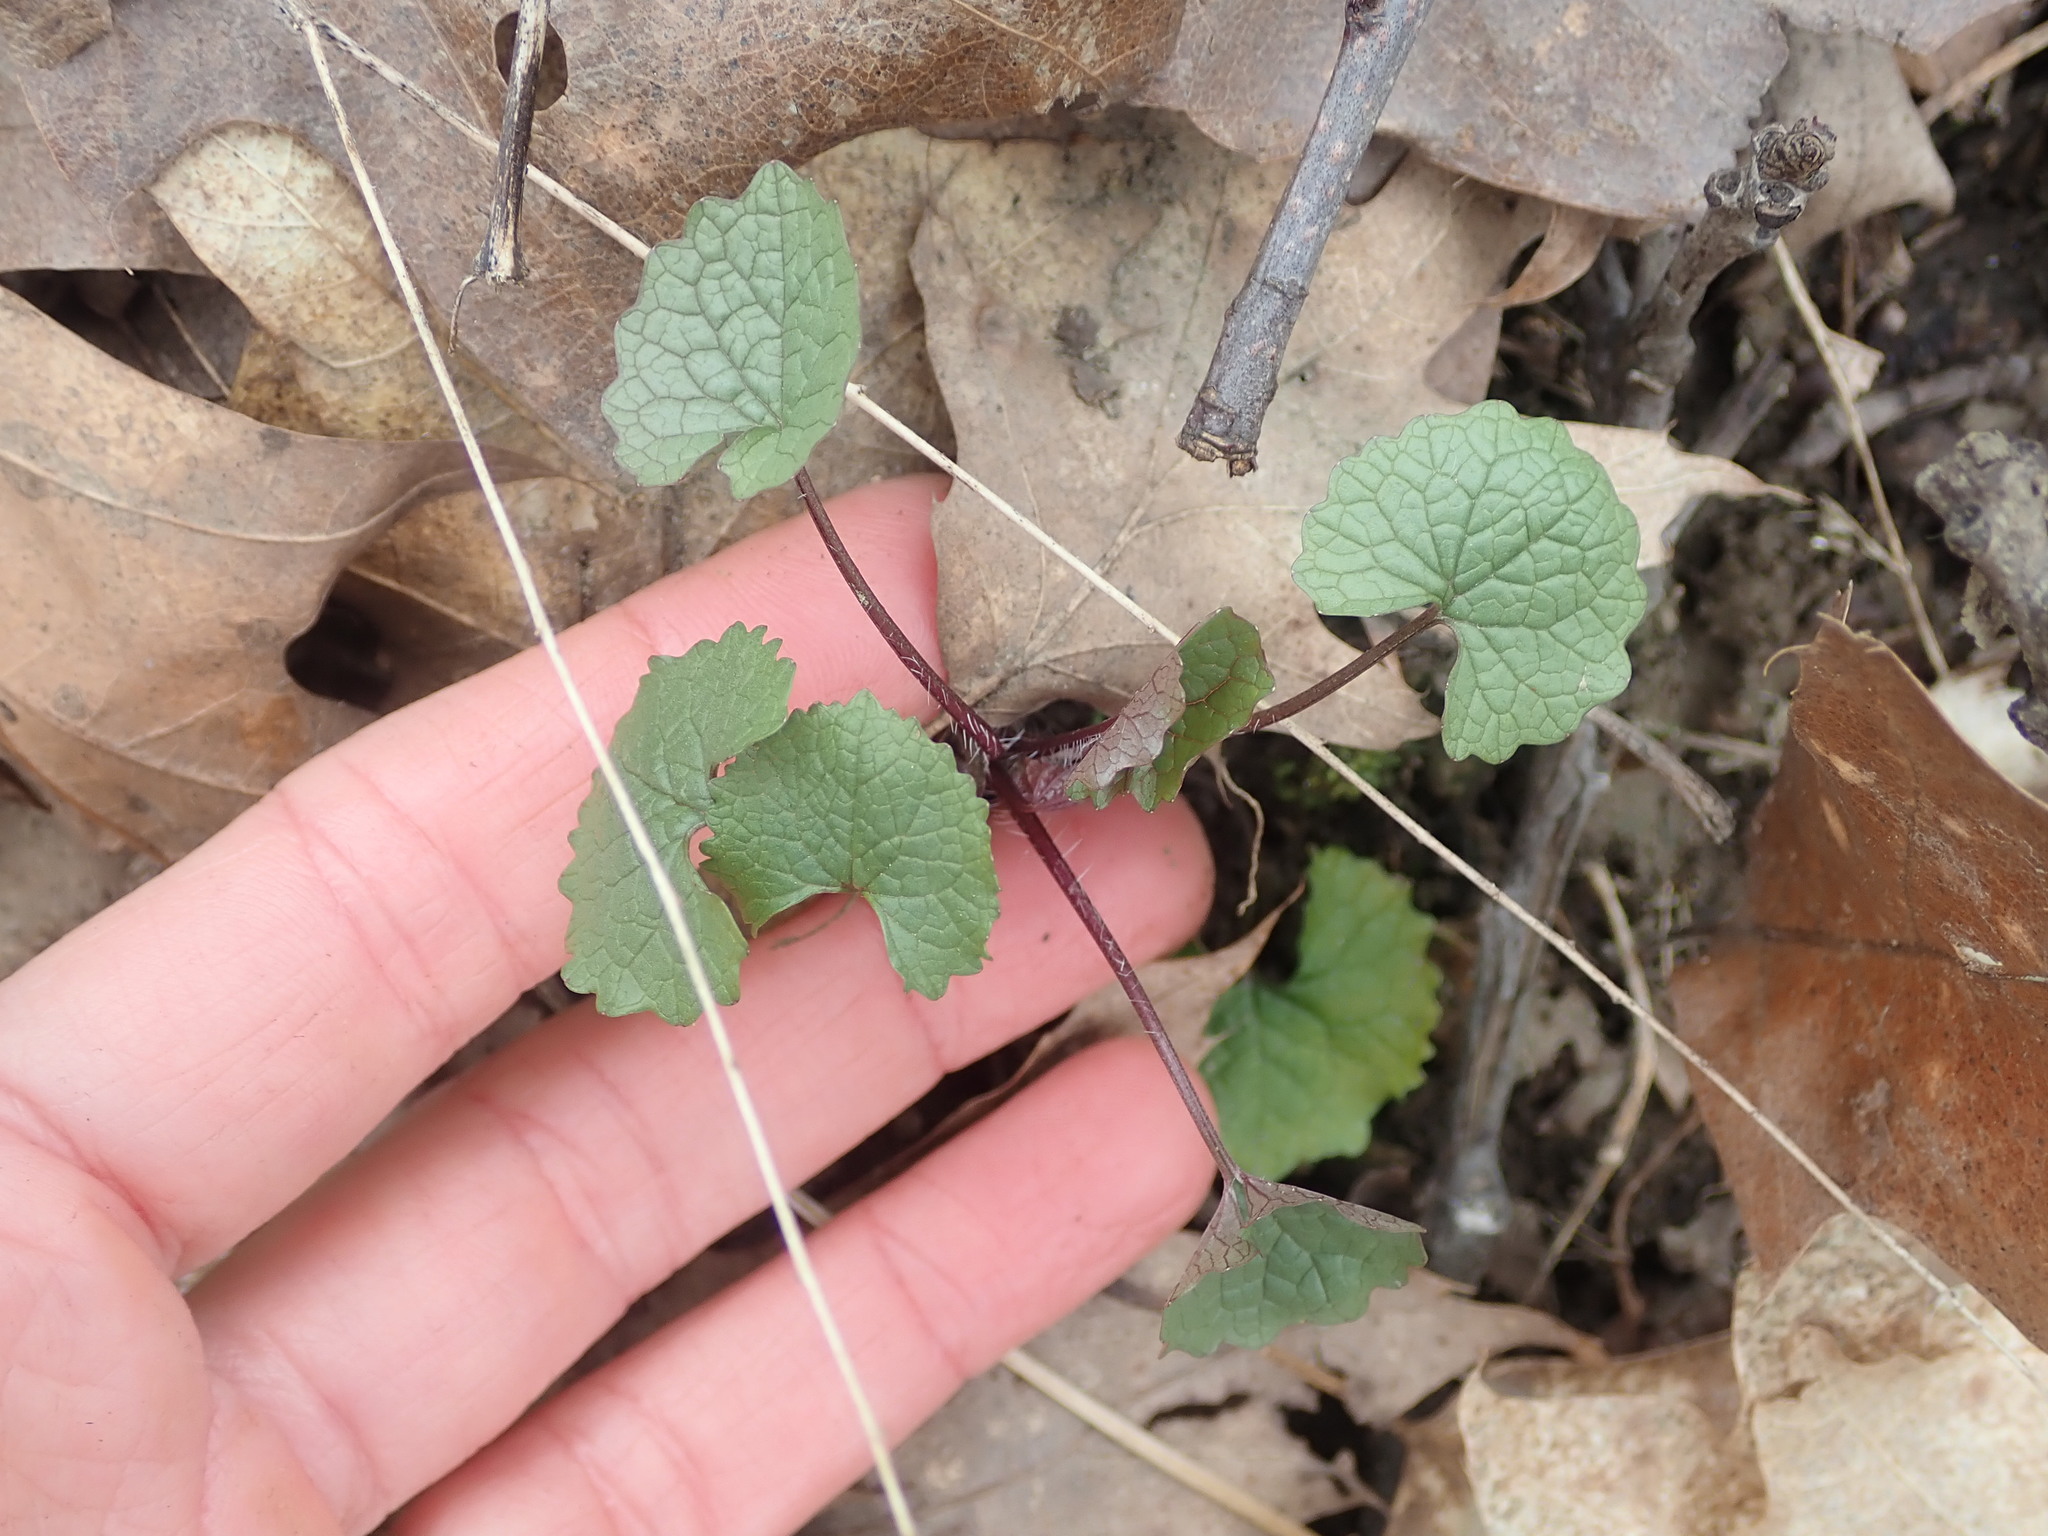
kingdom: Plantae
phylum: Tracheophyta
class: Magnoliopsida
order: Brassicales
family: Brassicaceae
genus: Alliaria
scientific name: Alliaria petiolata
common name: Garlic mustard
